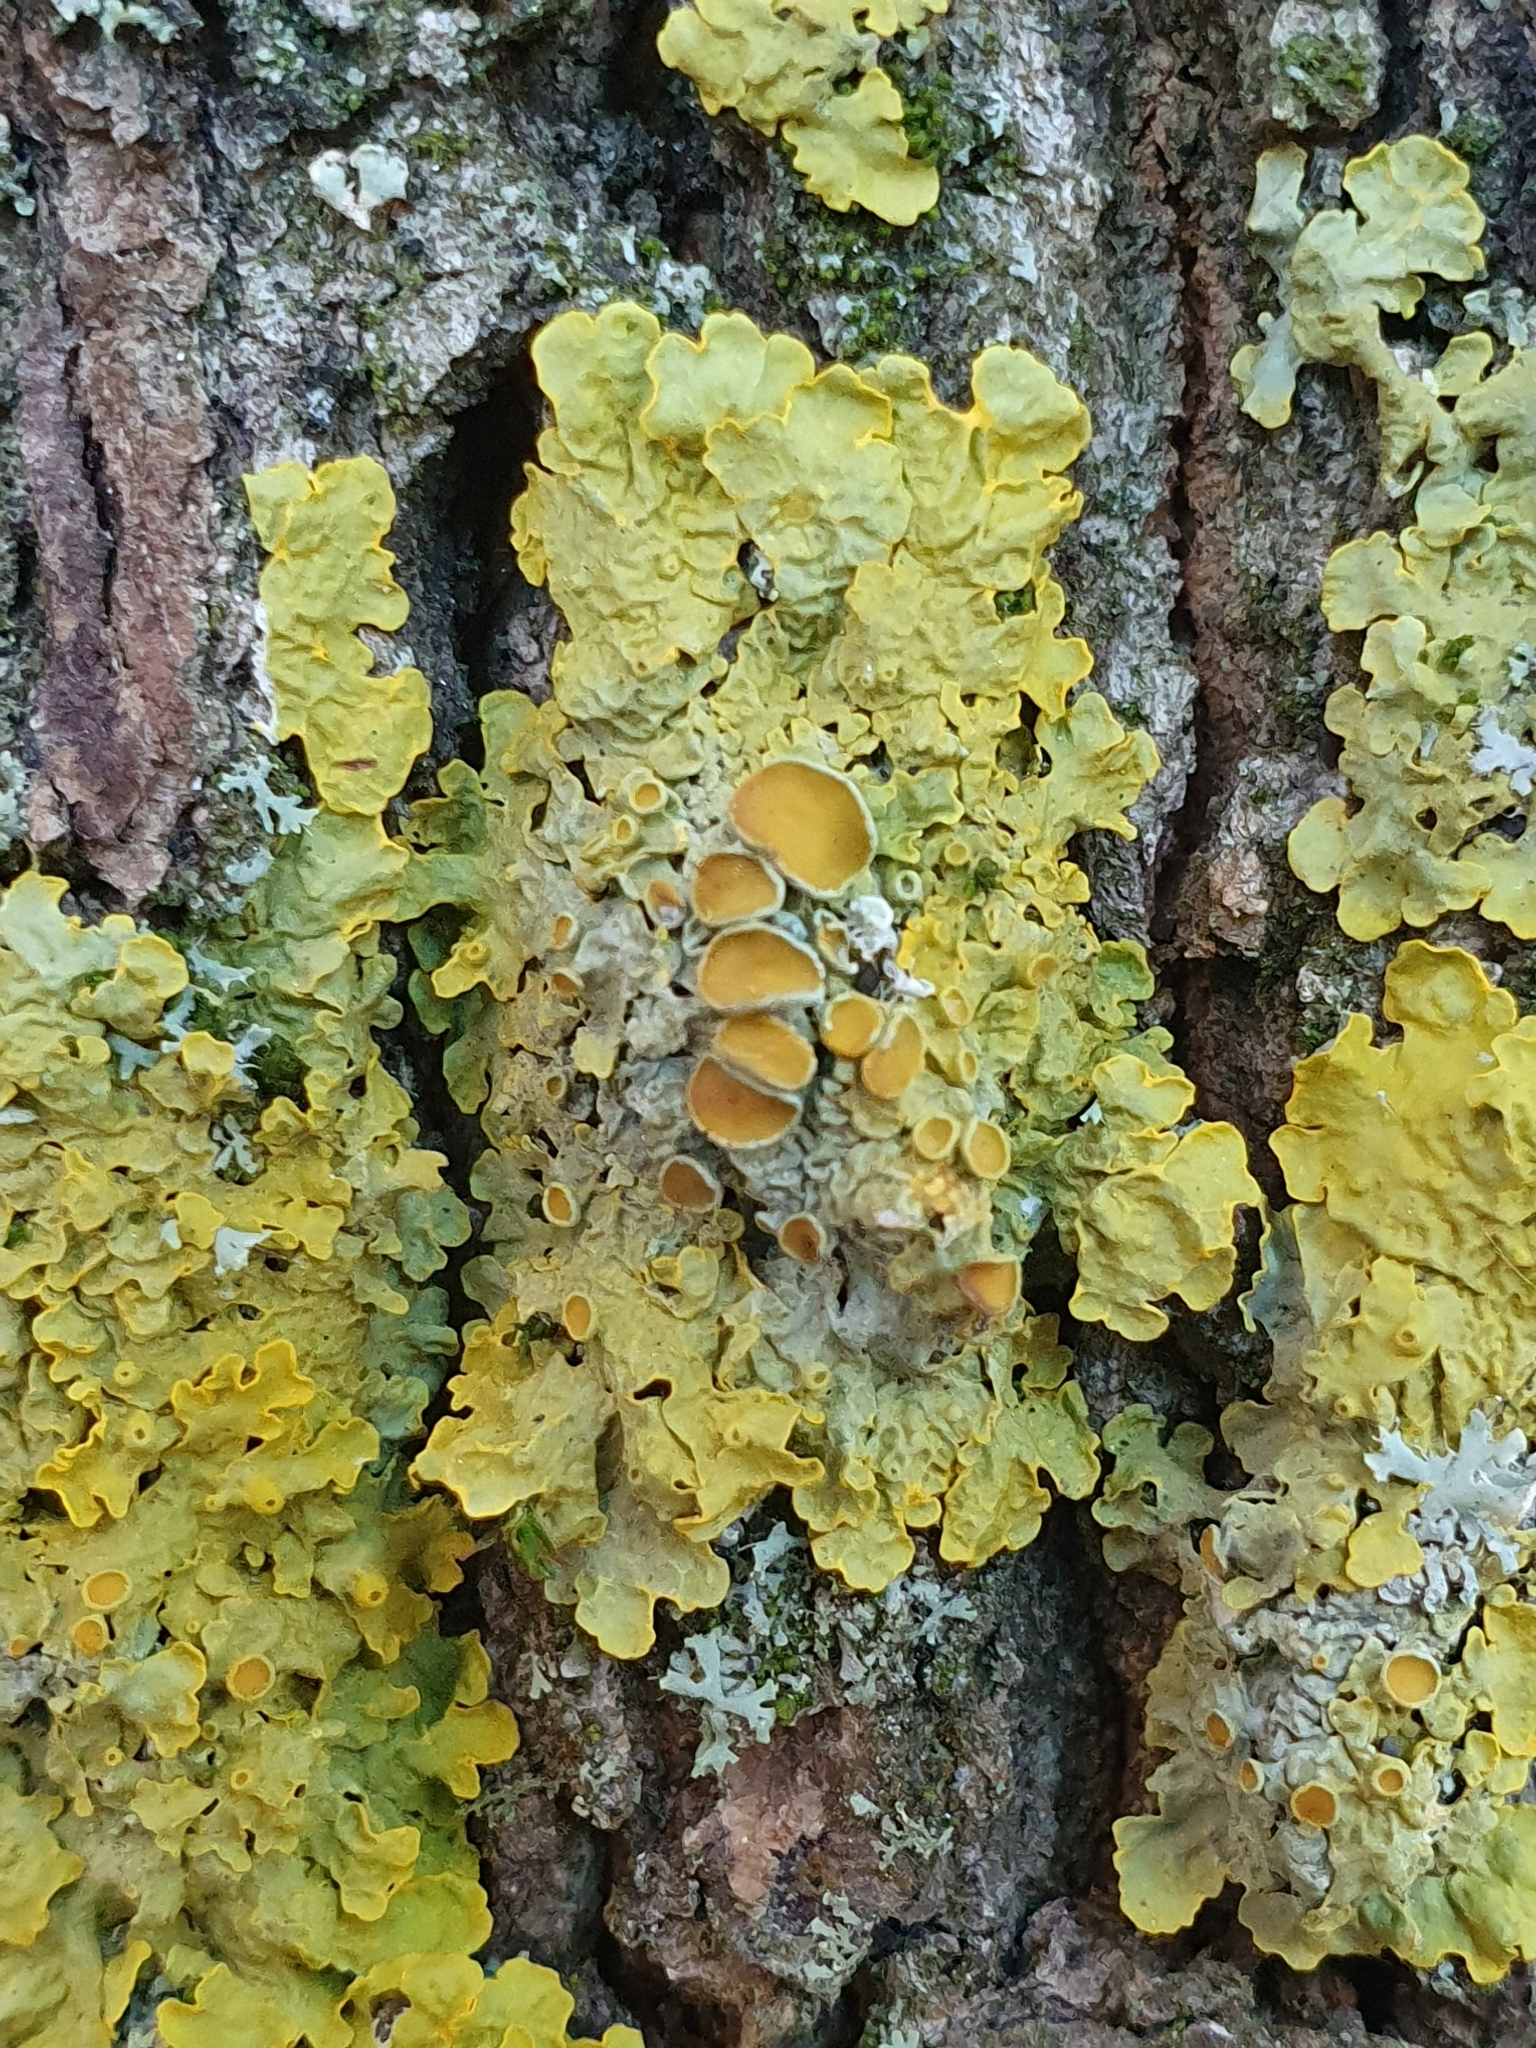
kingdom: Fungi
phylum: Ascomycota
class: Lecanoromycetes
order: Teloschistales
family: Teloschistaceae
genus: Xanthoria
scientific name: Xanthoria parietina
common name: Common orange lichen
